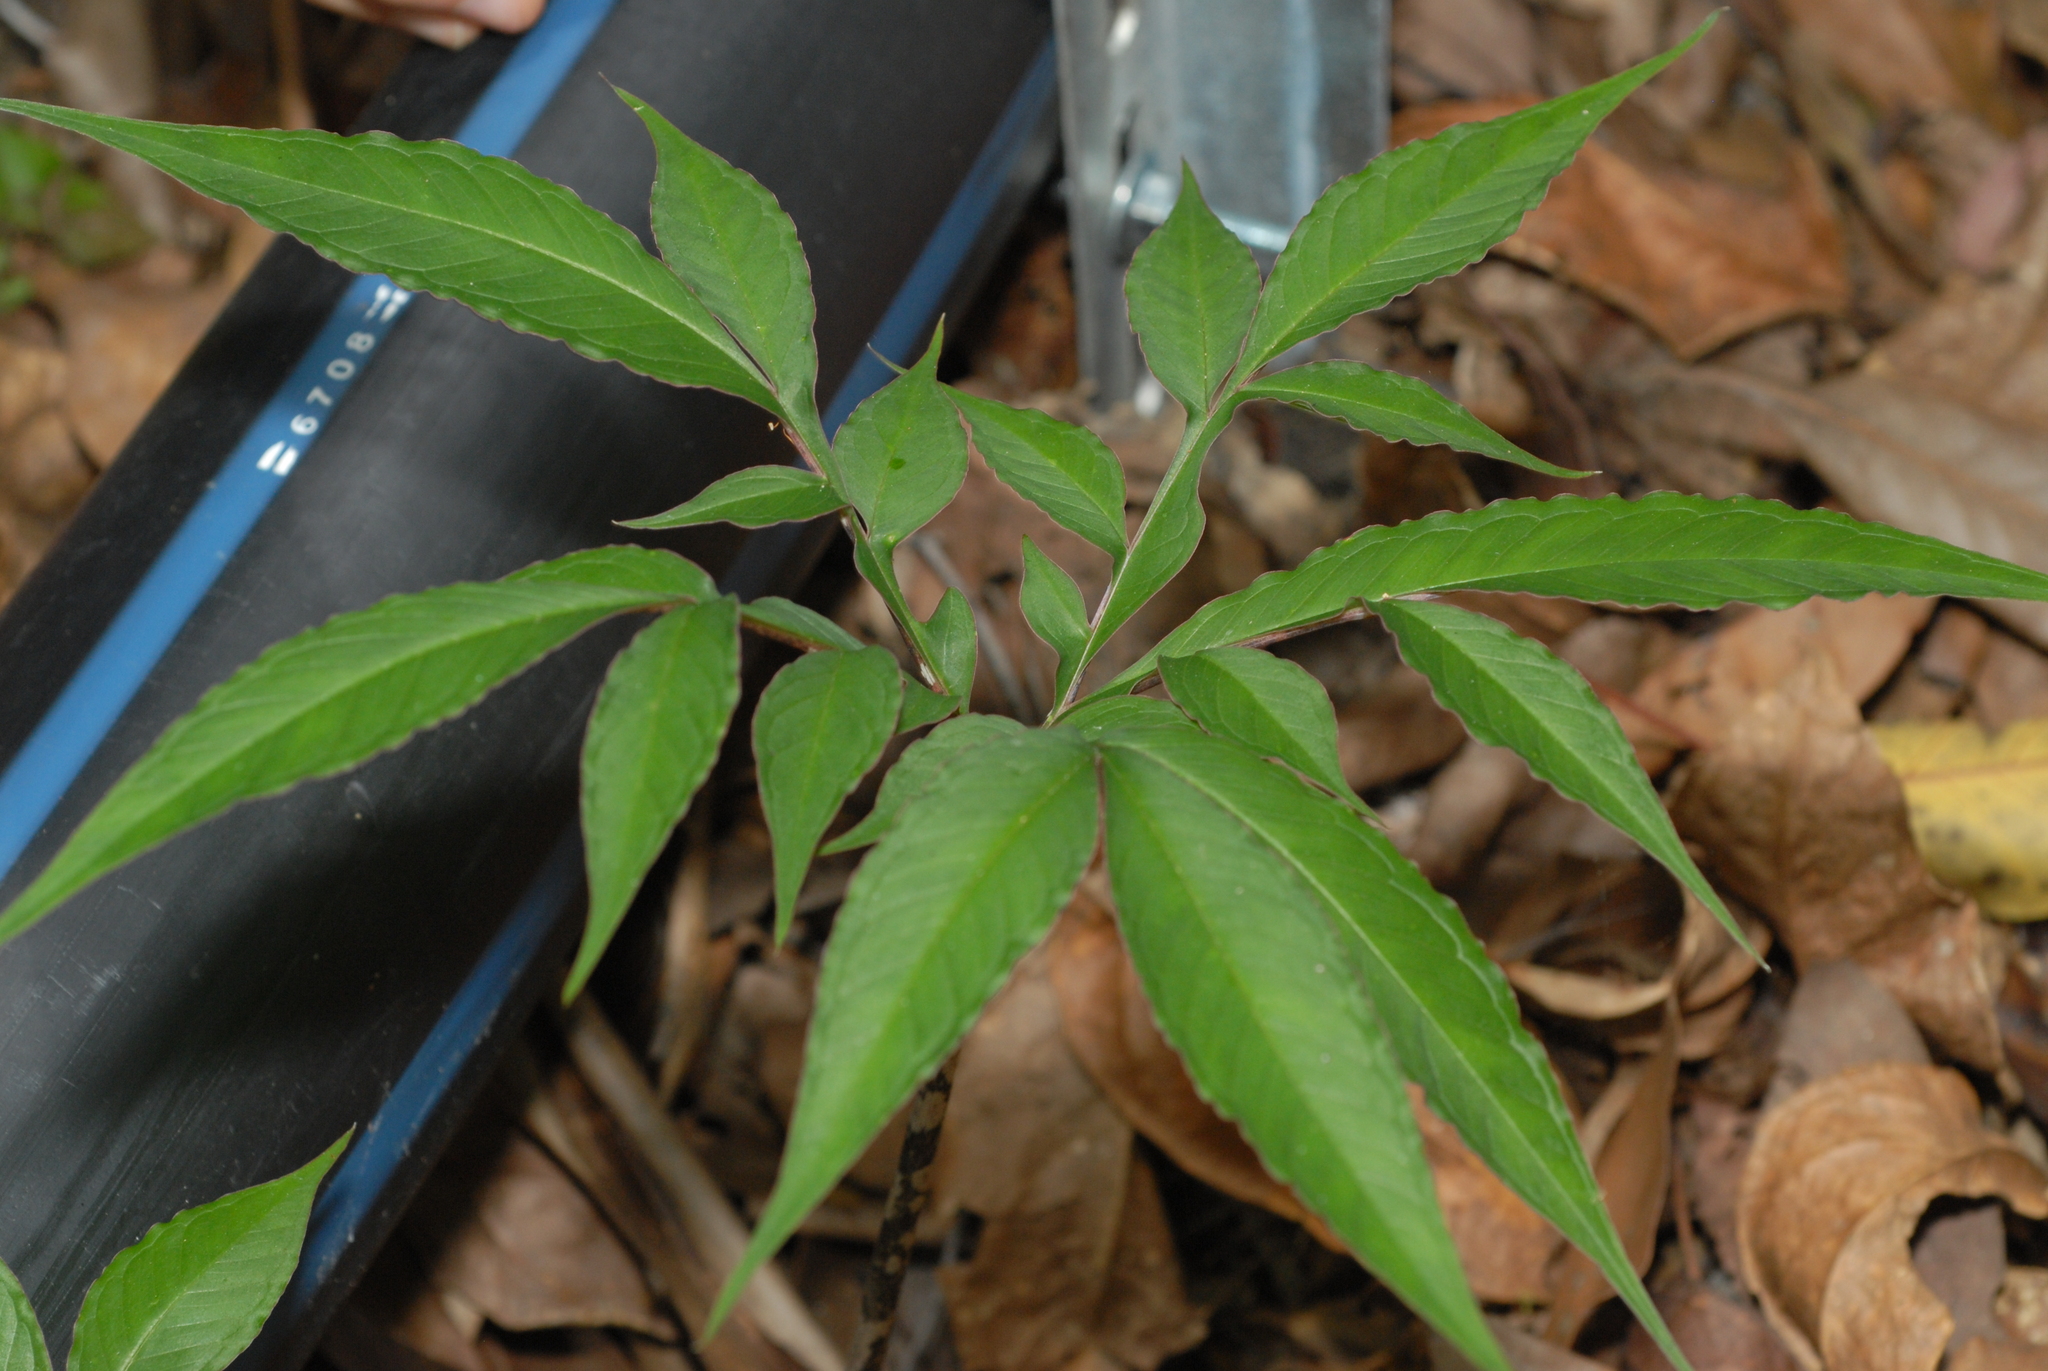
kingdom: Plantae
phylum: Tracheophyta
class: Liliopsida
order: Alismatales
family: Araceae
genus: Amorphophallus
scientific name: Amorphophallus kiusianus
